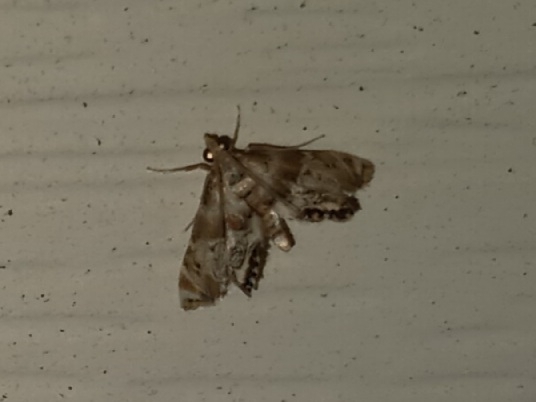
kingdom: Animalia
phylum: Arthropoda
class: Insecta
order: Lepidoptera
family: Crambidae
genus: Petrophila
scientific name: Petrophila fulicalis
